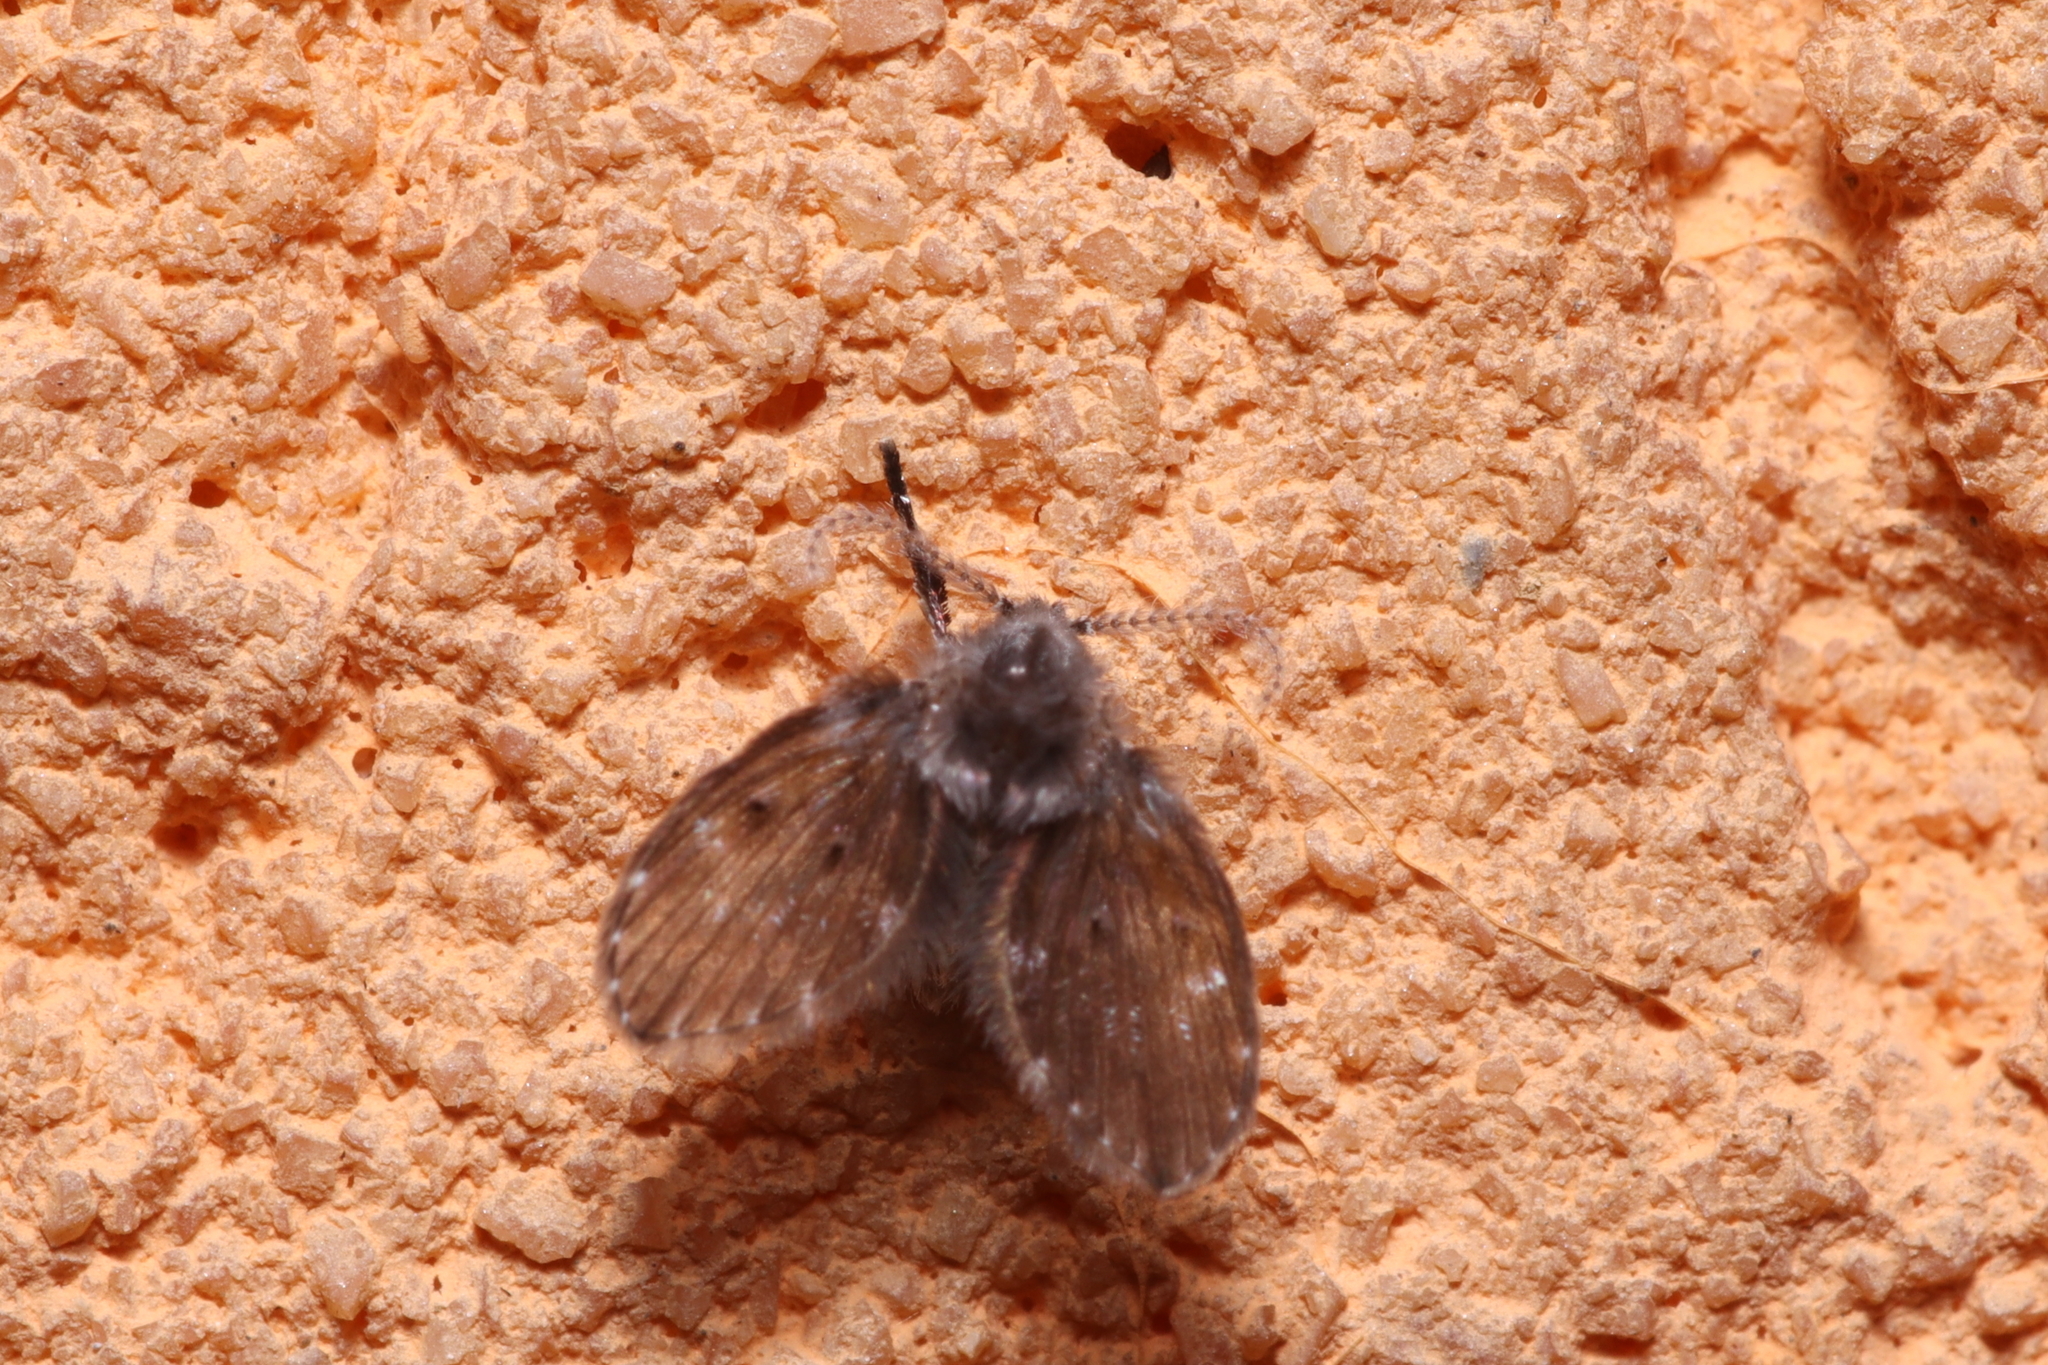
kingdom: Animalia
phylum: Arthropoda
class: Insecta
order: Diptera
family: Psychodidae
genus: Clogmia
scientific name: Clogmia albipunctatus
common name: White-spotted moth fly
